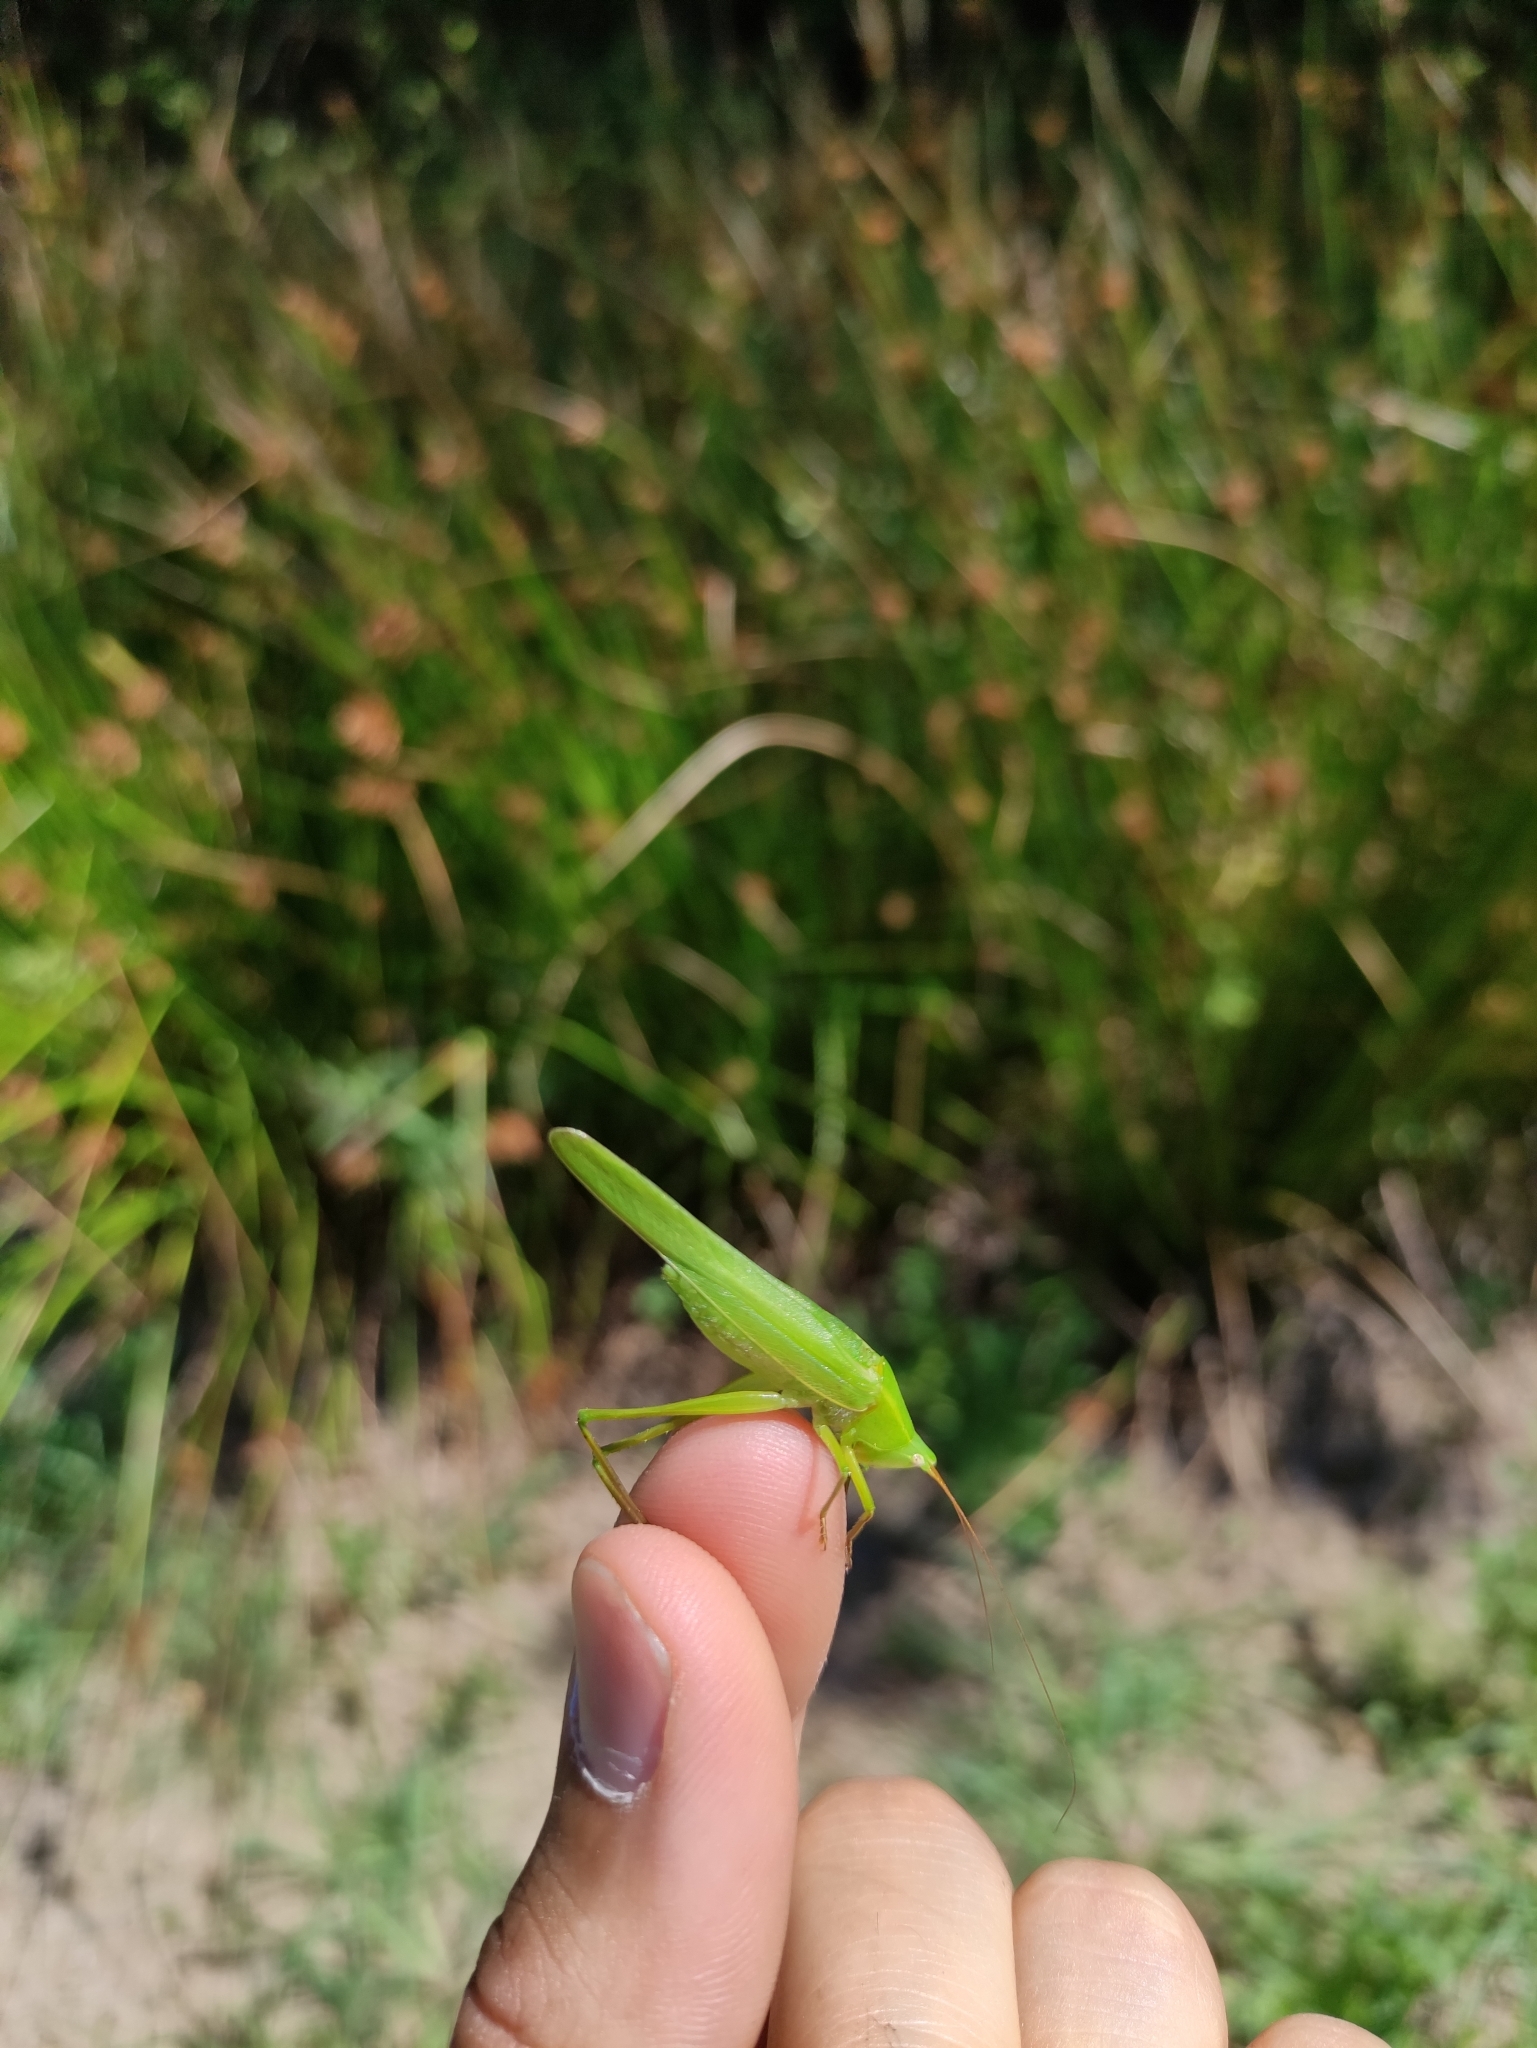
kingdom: Animalia
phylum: Arthropoda
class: Insecta
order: Orthoptera
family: Tettigoniidae
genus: Ruspolia
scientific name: Ruspolia nitidula
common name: Large conehead
